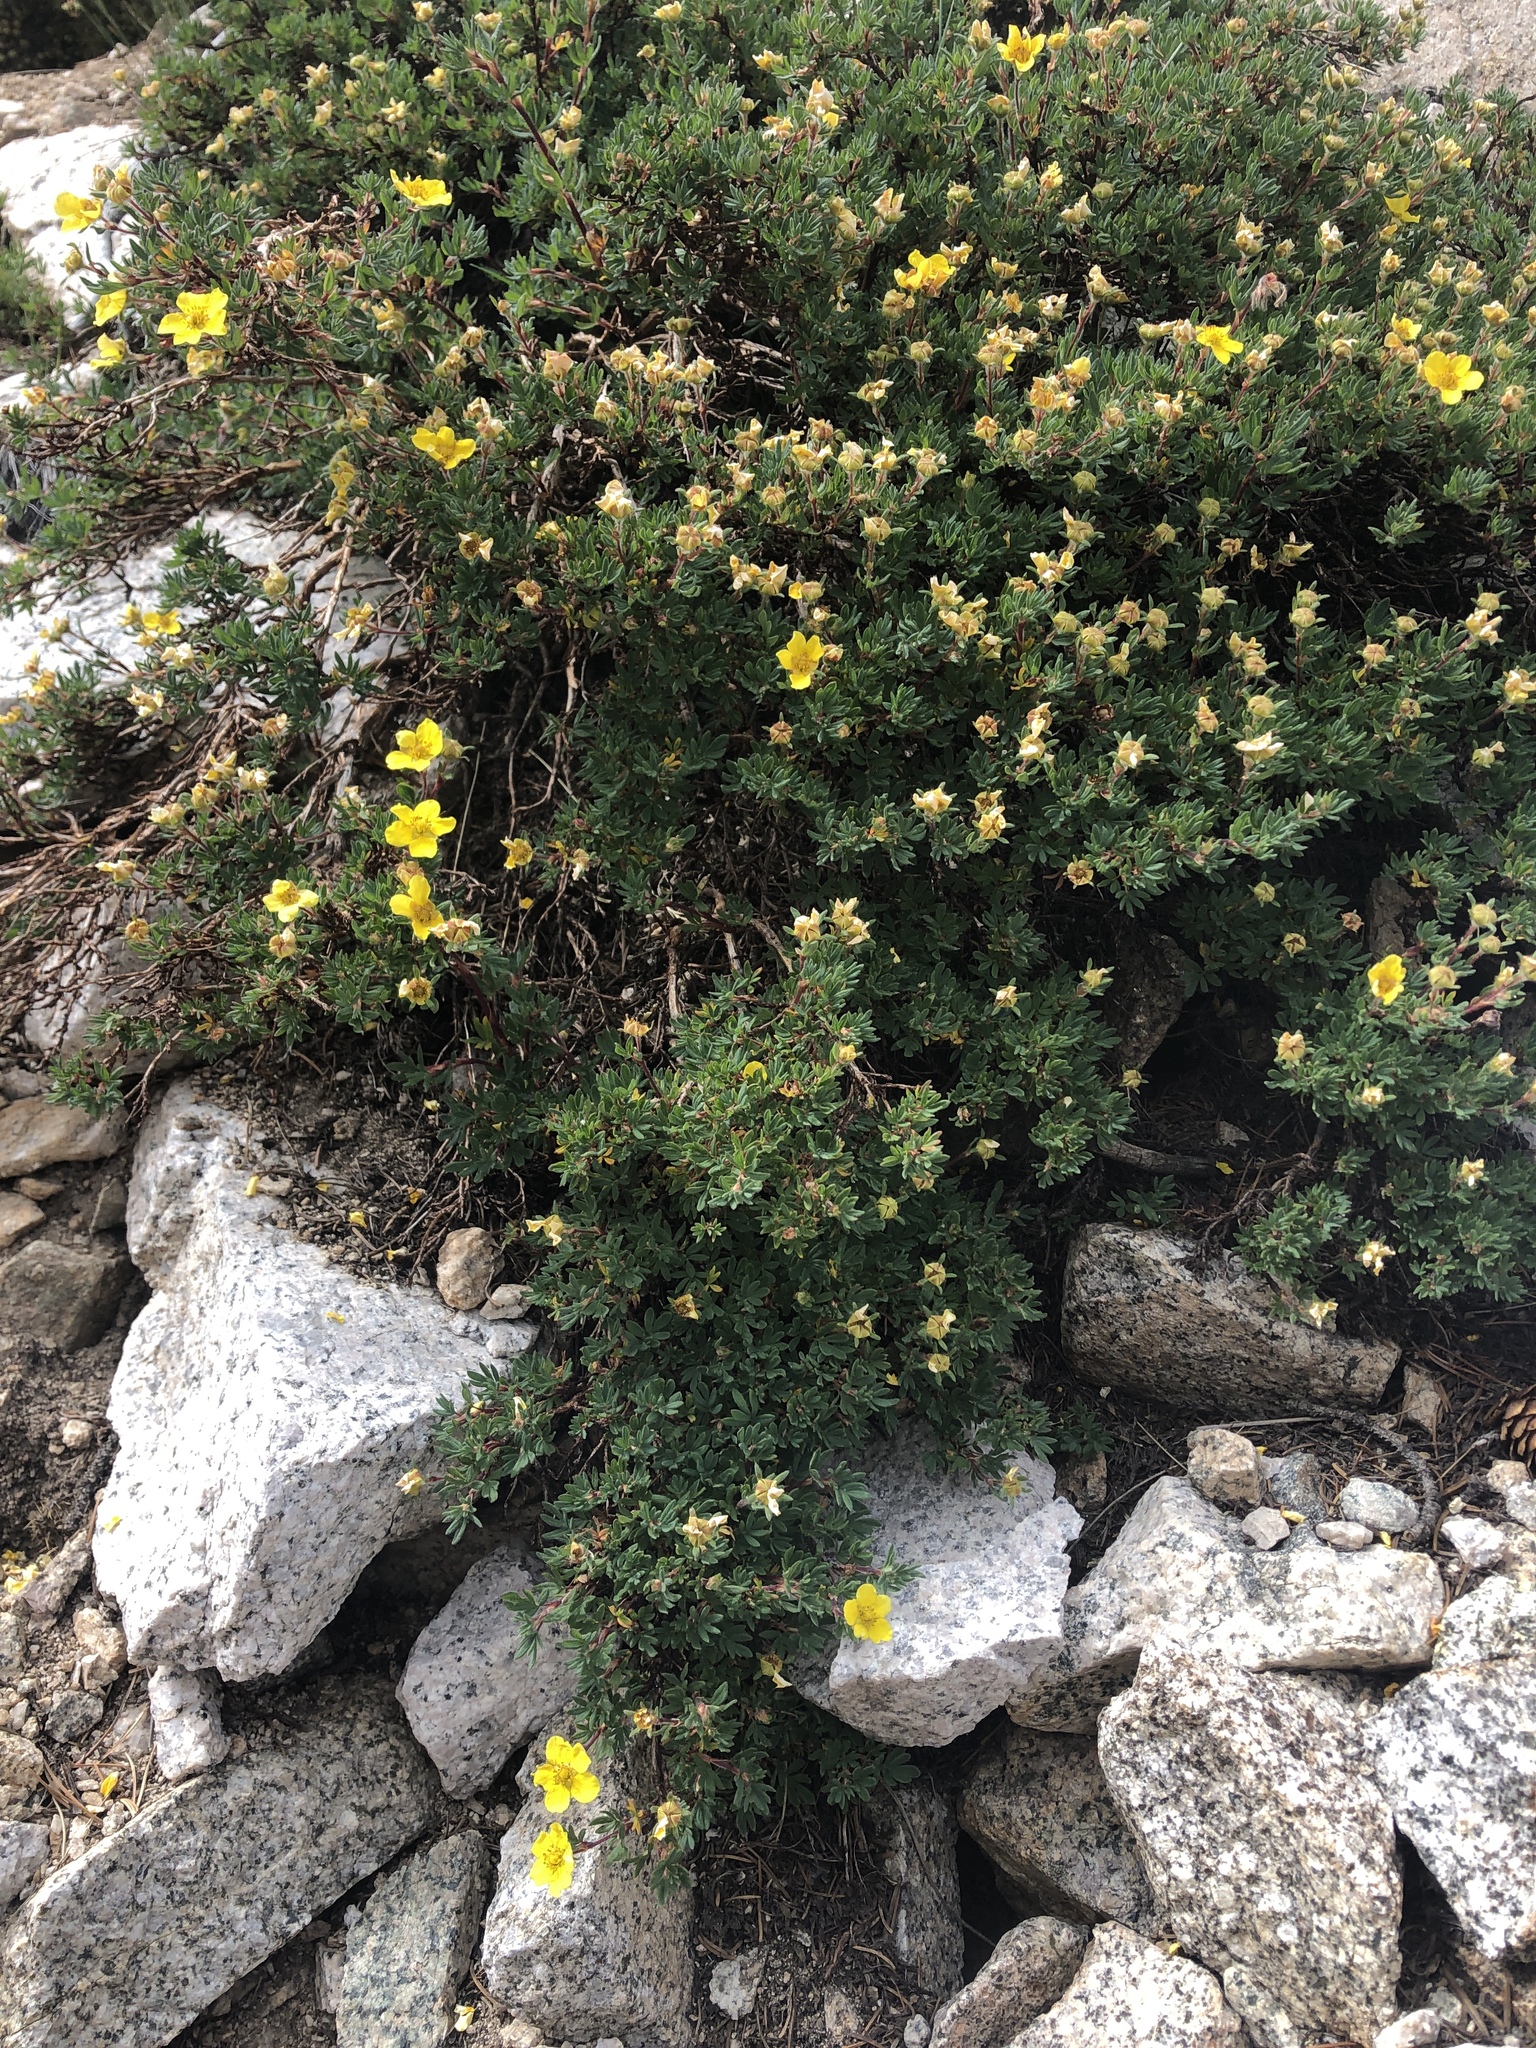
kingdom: Plantae
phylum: Tracheophyta
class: Magnoliopsida
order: Rosales
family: Rosaceae
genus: Dasiphora
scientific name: Dasiphora fruticosa
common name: Shrubby cinquefoil
